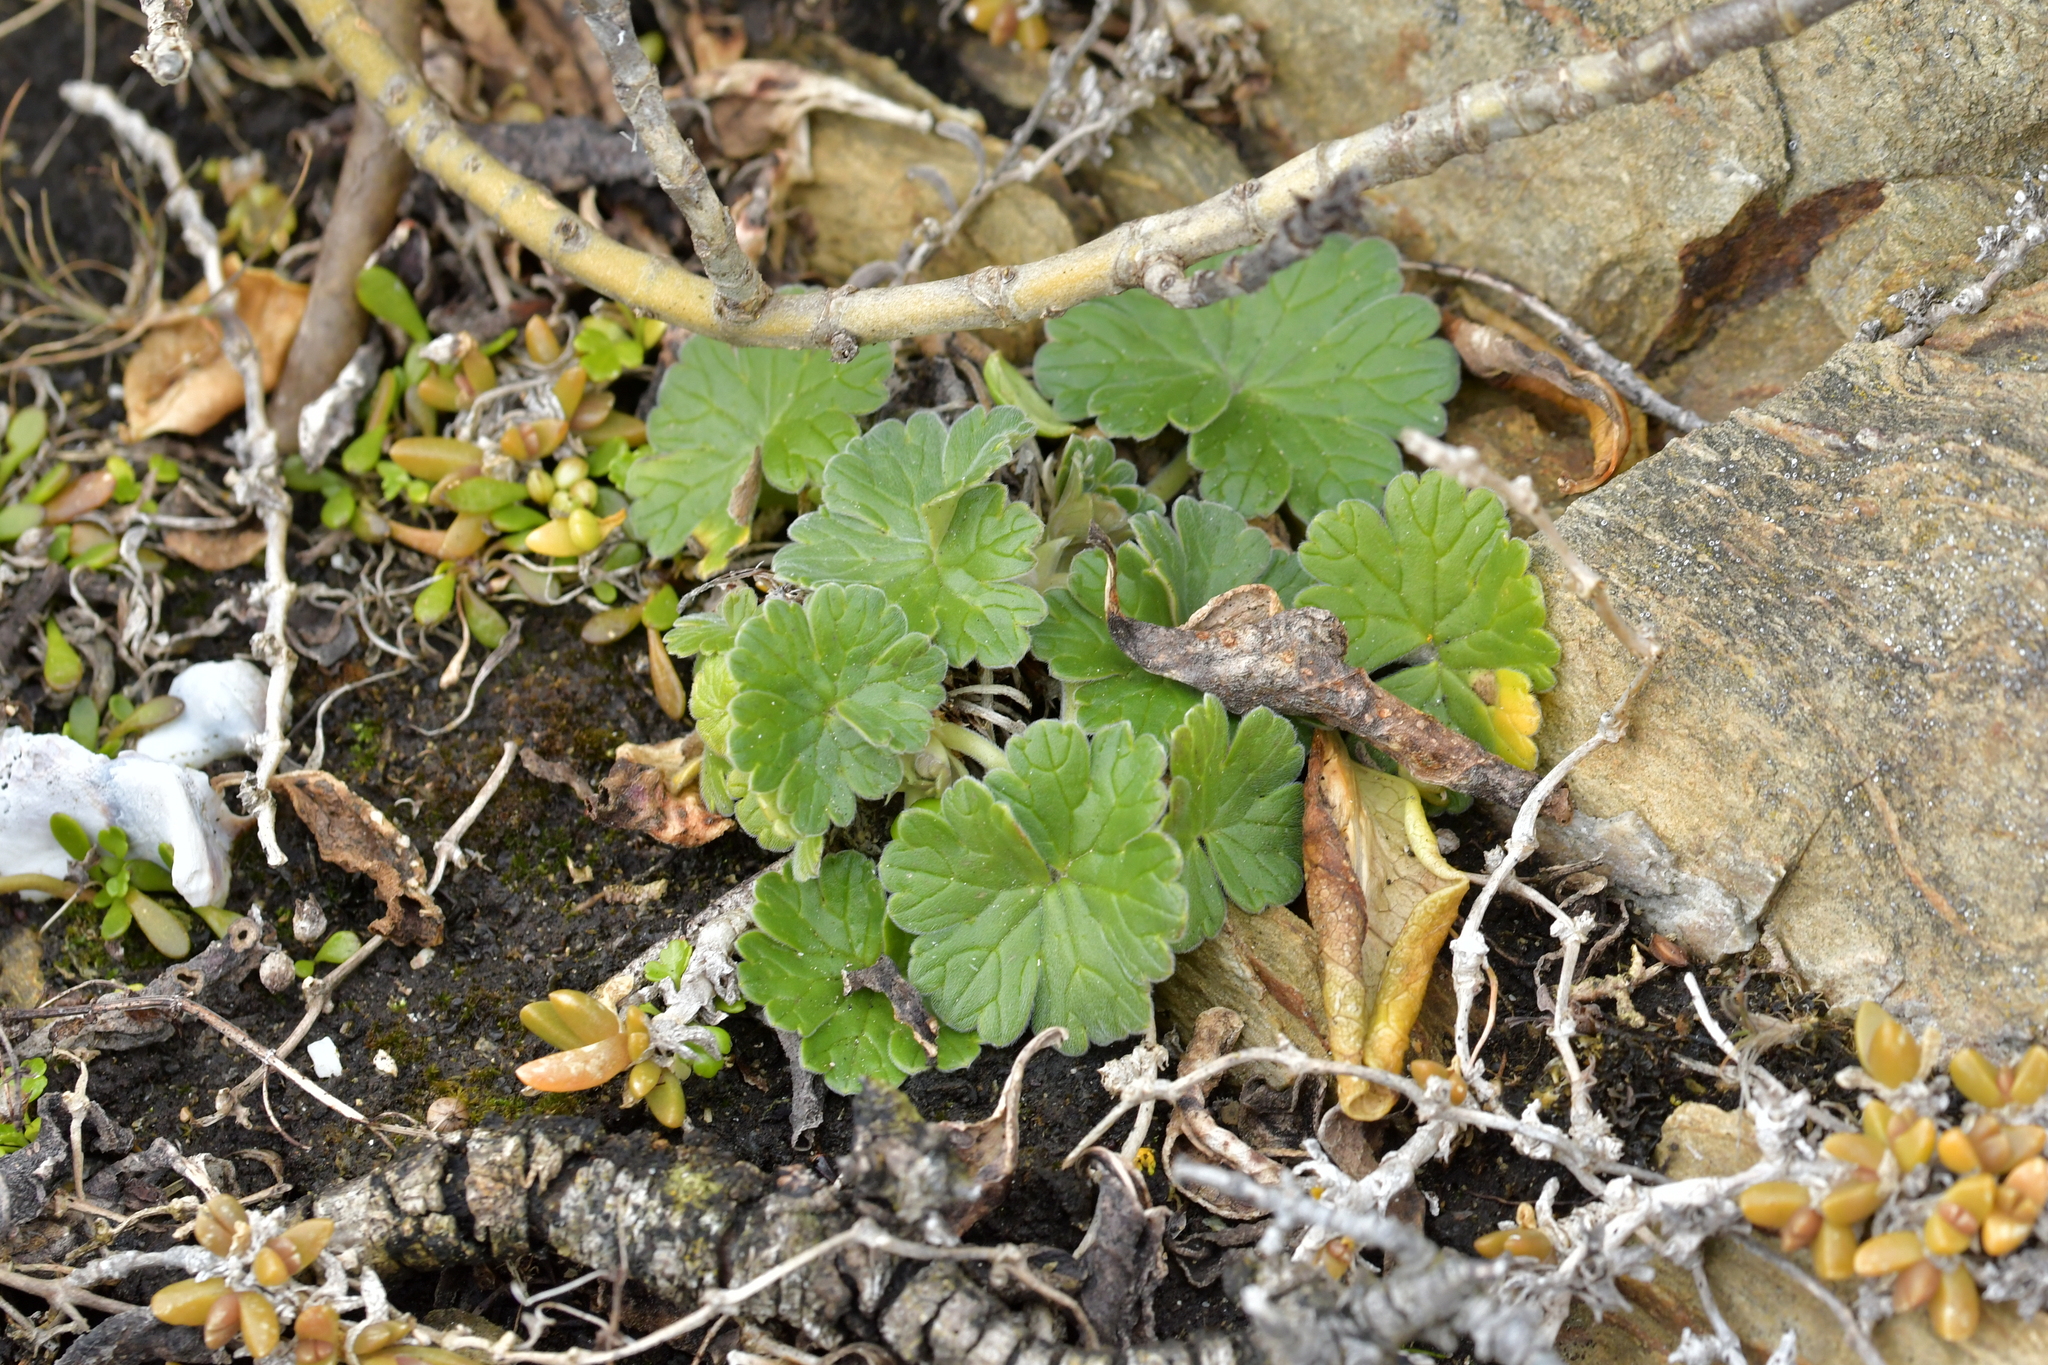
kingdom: Plantae
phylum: Tracheophyta
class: Magnoliopsida
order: Geraniales
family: Geraniaceae
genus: Geranium
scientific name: Geranium traversii
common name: Cranesbill
